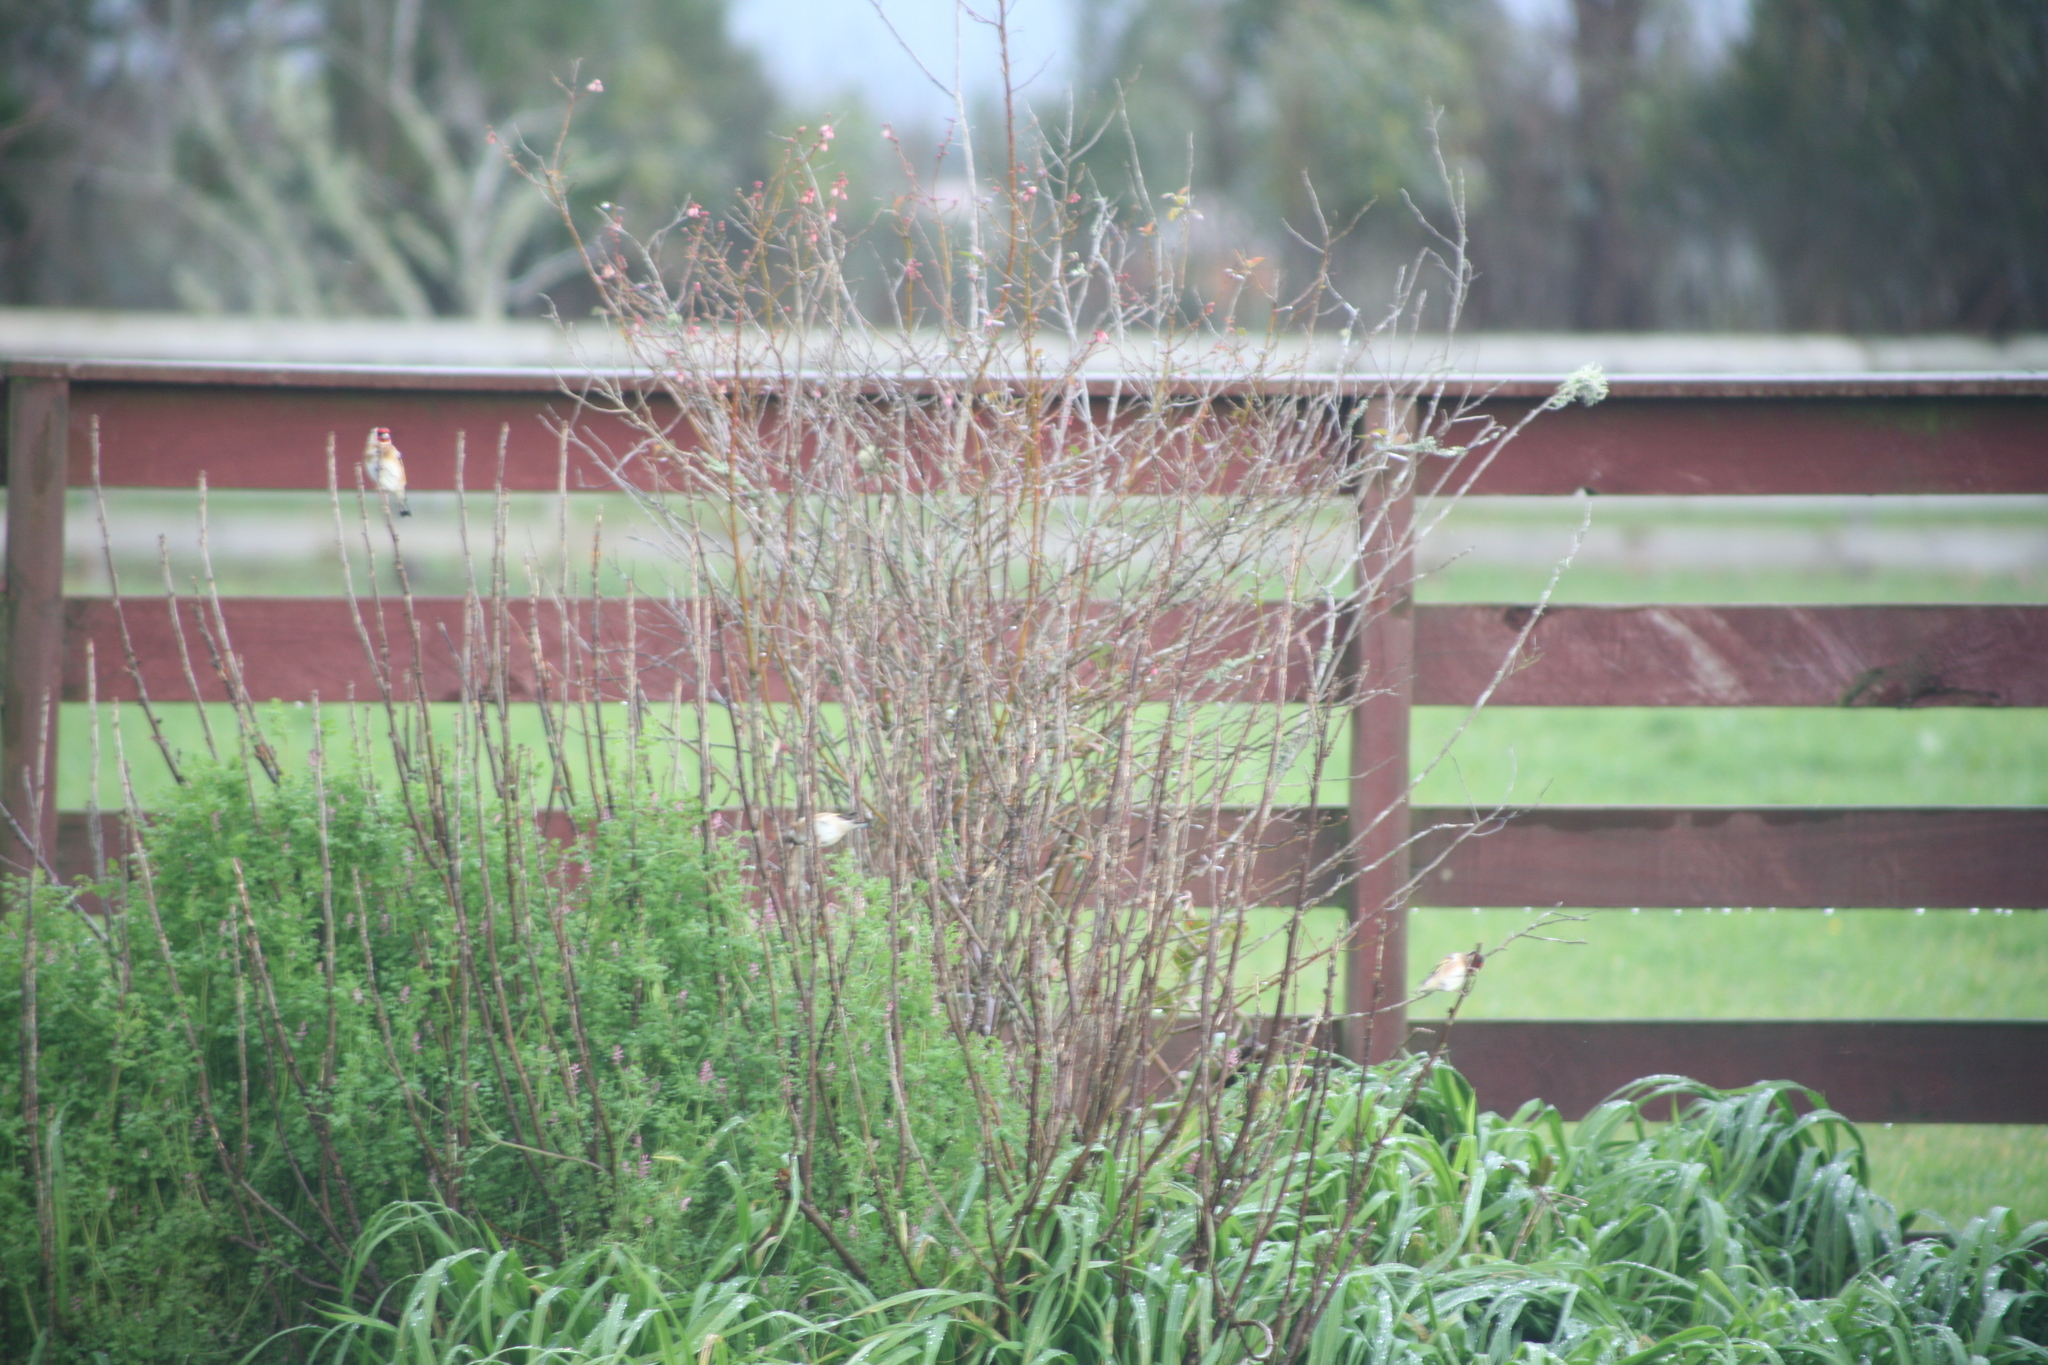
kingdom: Animalia
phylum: Chordata
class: Aves
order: Passeriformes
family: Fringillidae
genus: Carduelis
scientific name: Carduelis carduelis
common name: European goldfinch
